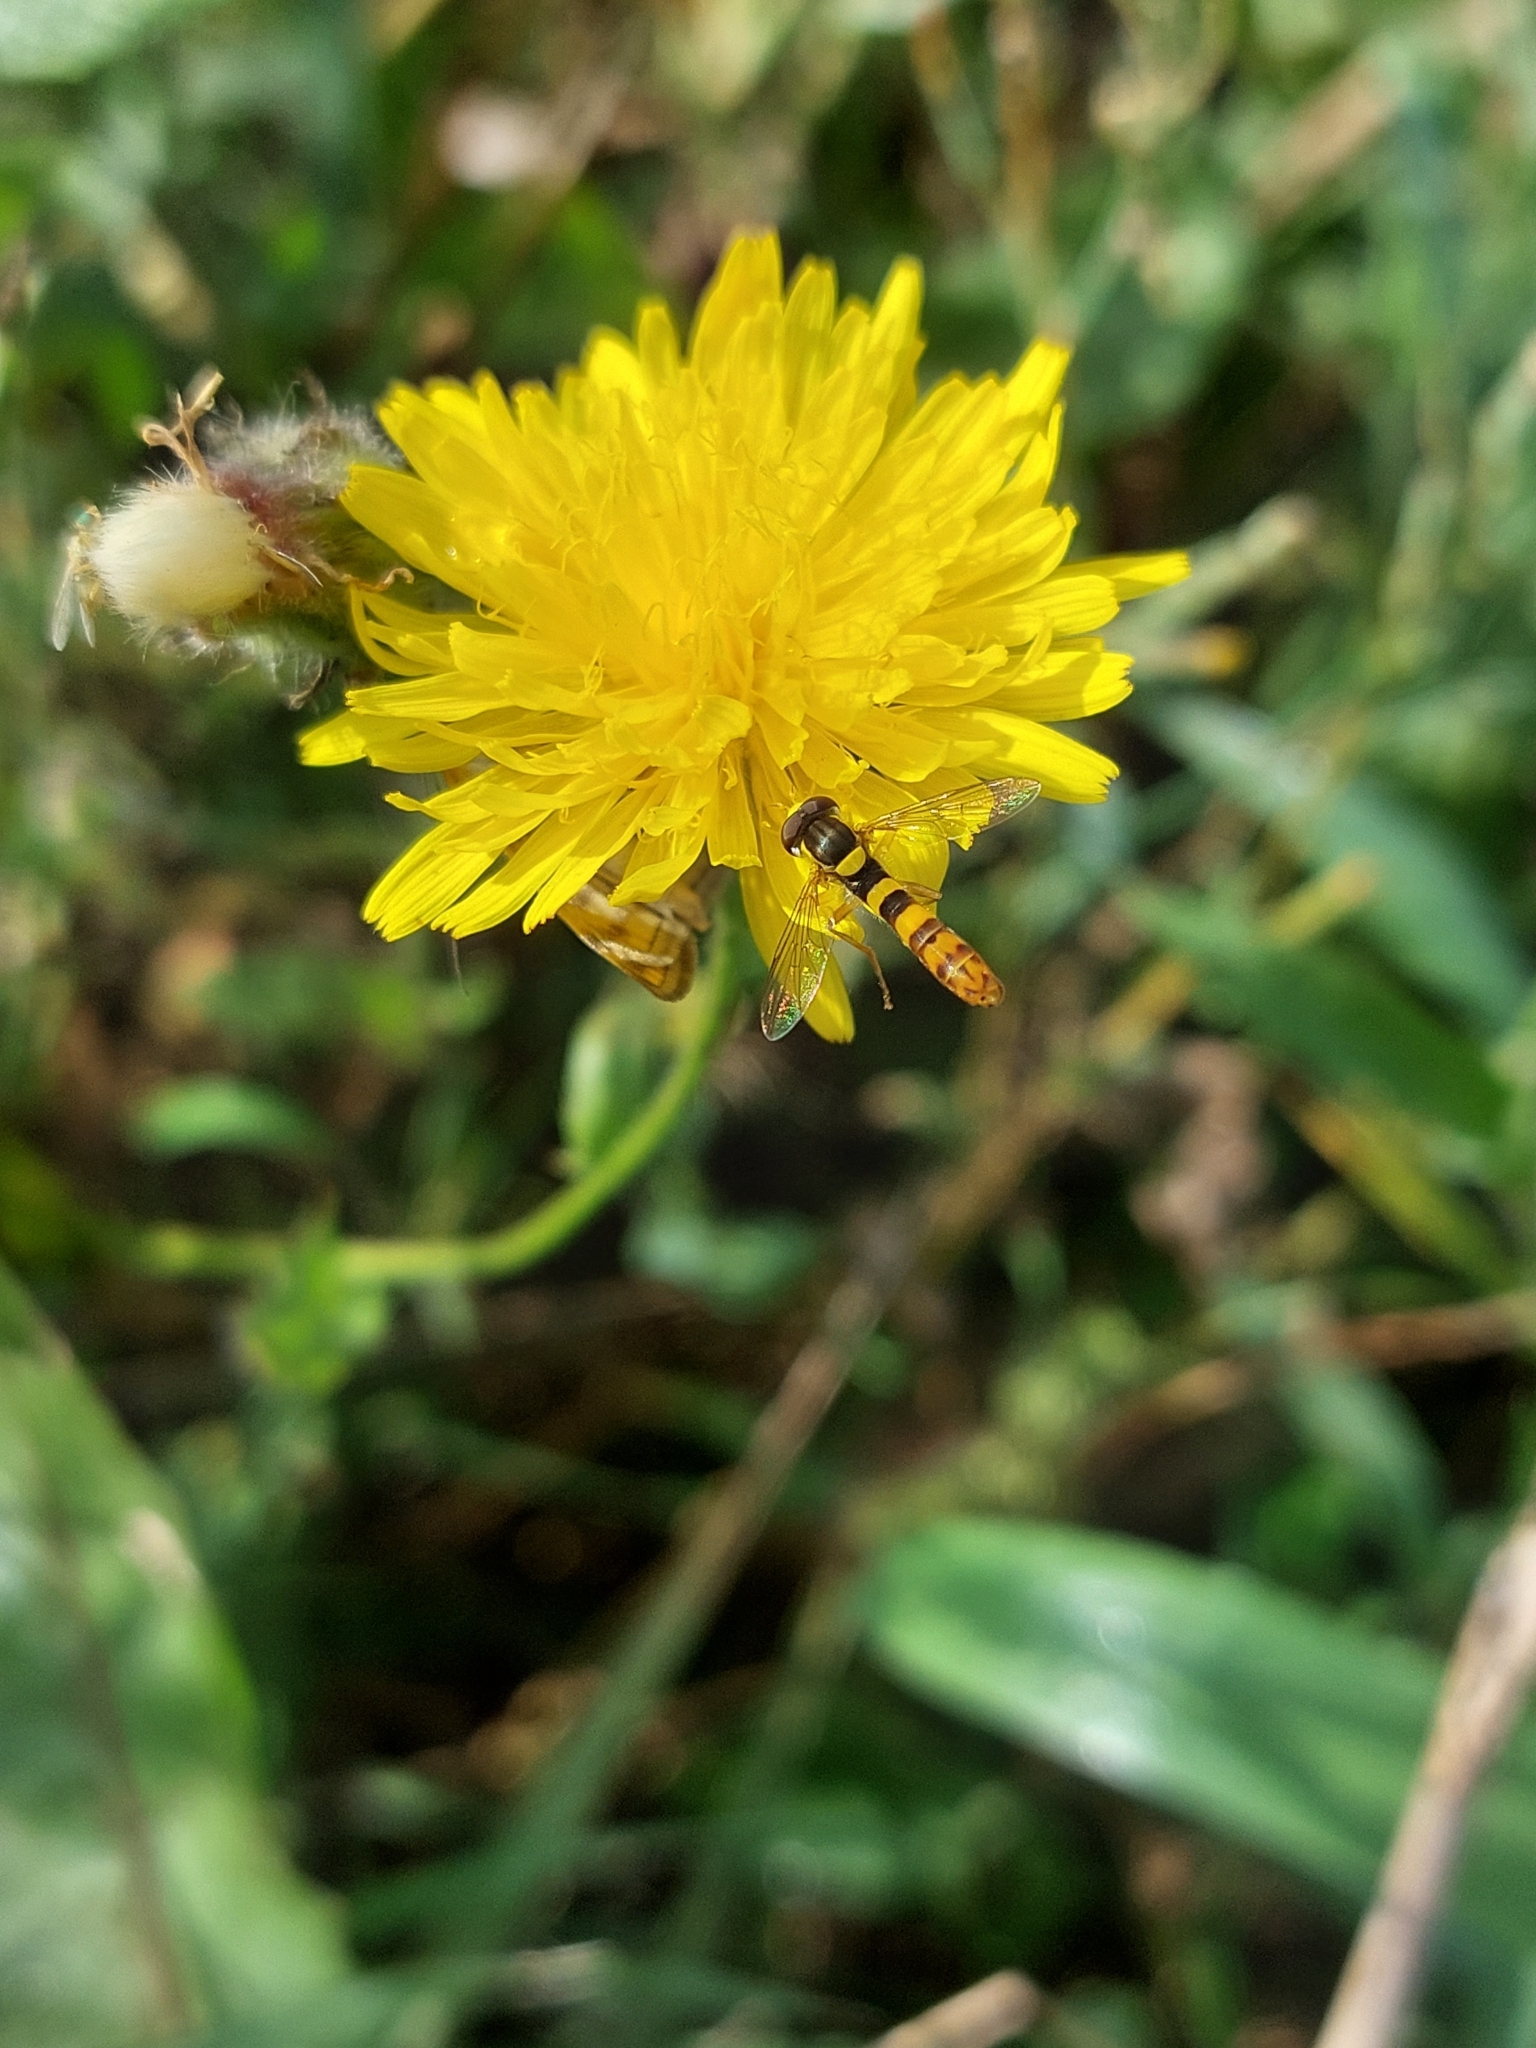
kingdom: Animalia
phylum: Arthropoda
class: Insecta
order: Diptera
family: Syrphidae
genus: Sphaerophoria
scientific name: Sphaerophoria scripta
